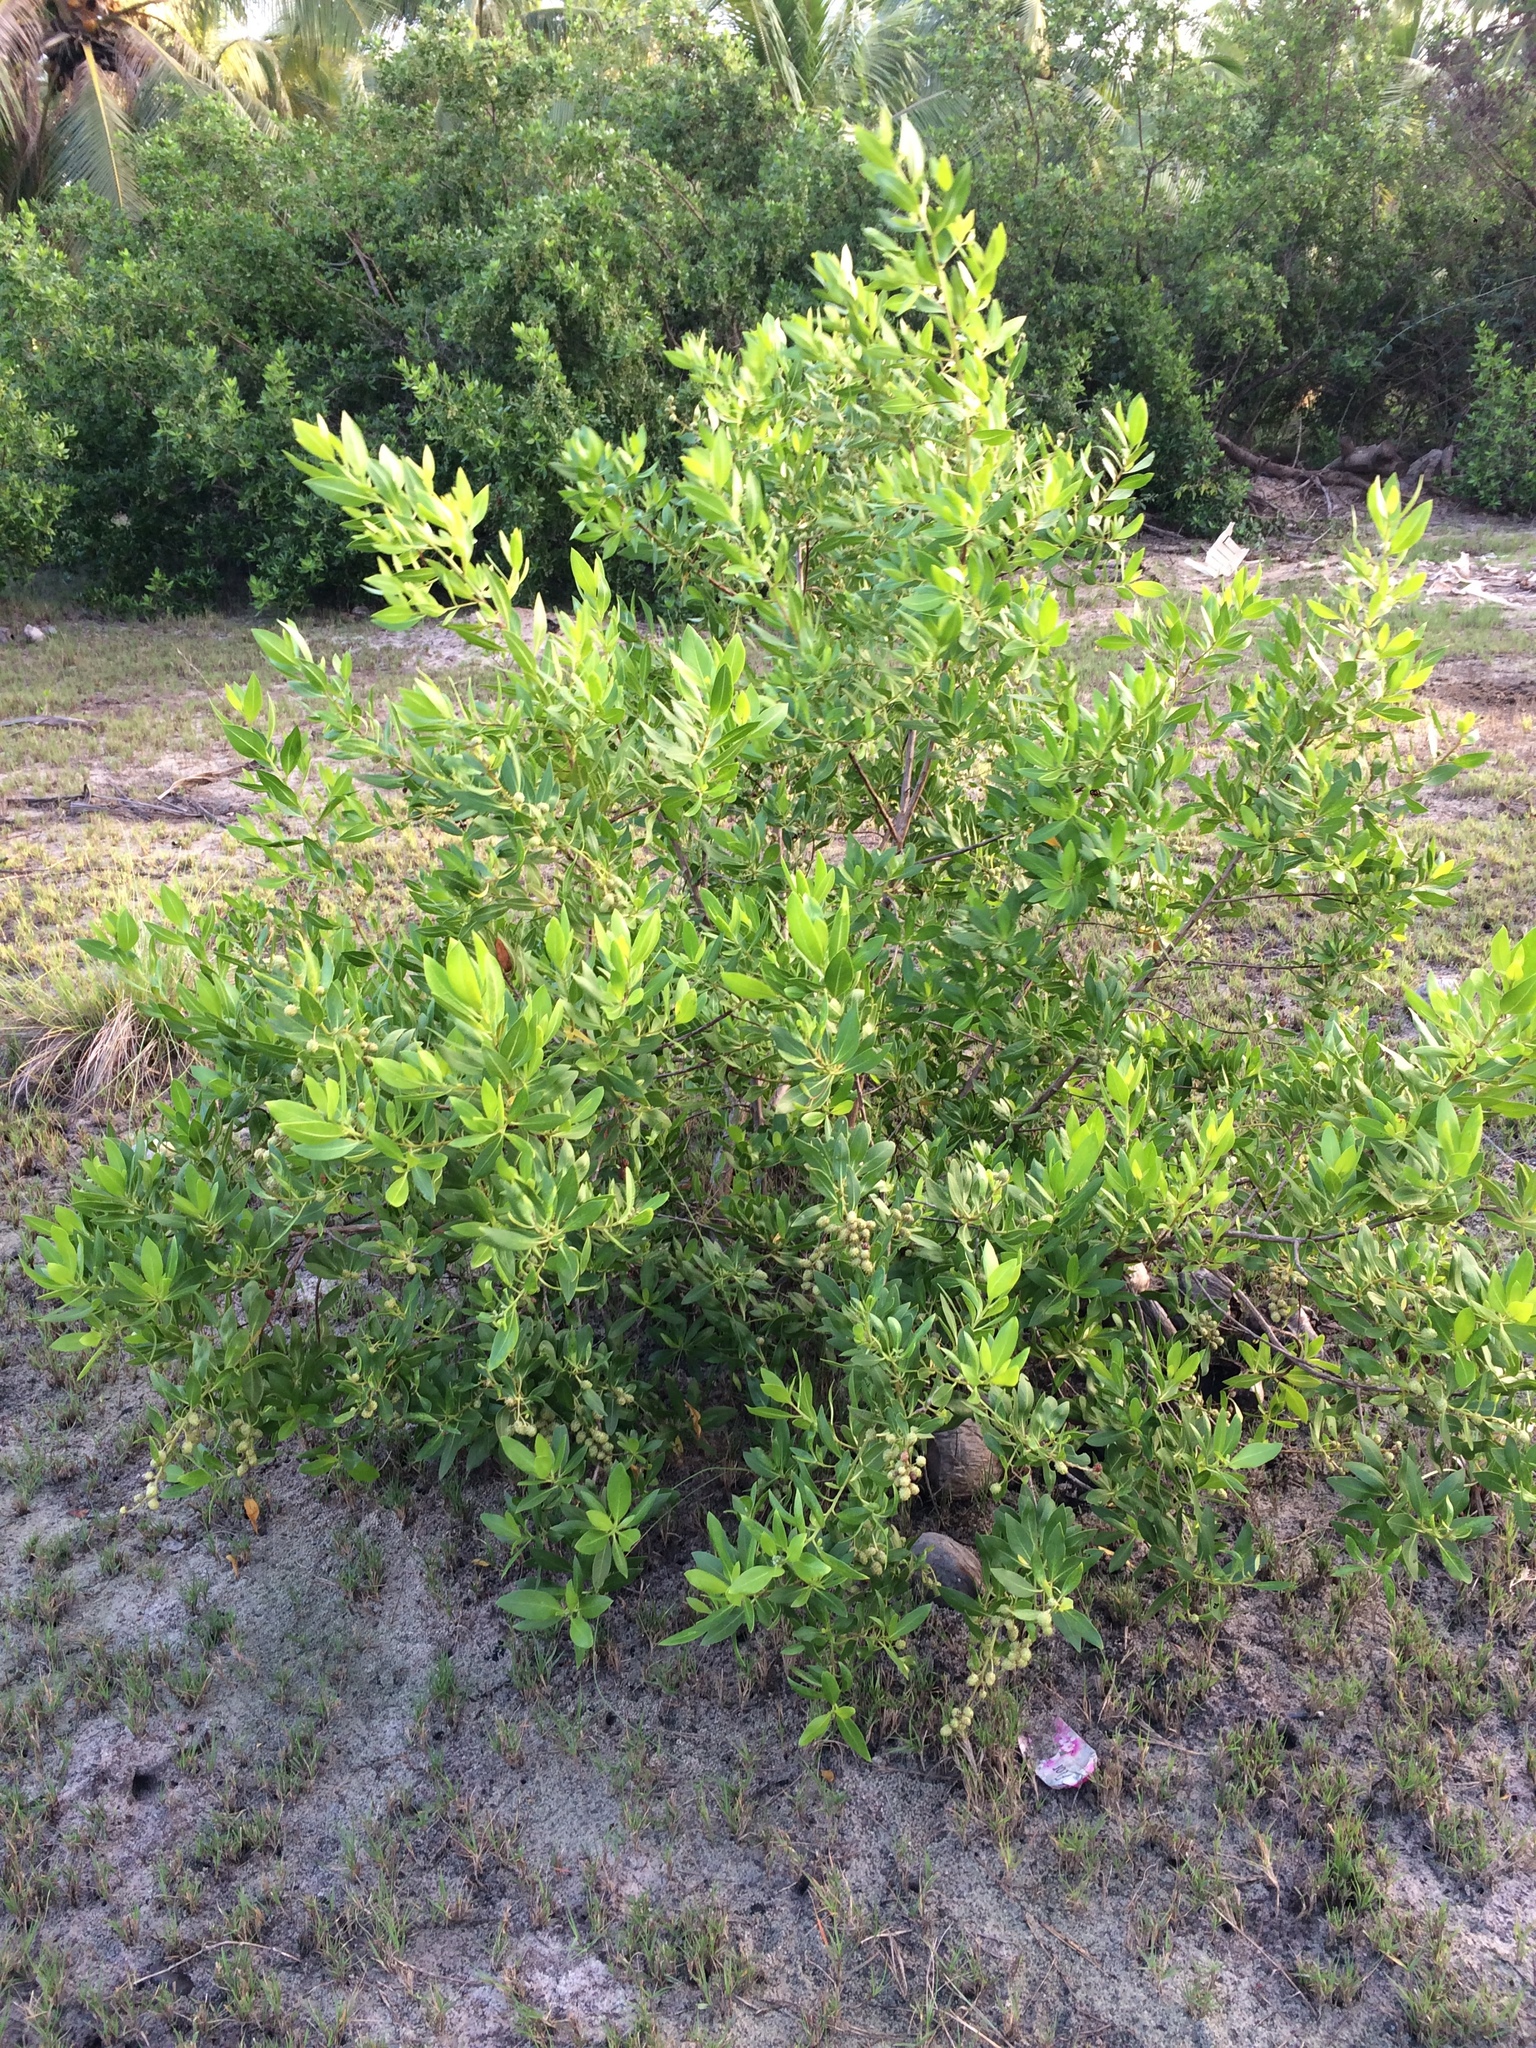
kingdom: Plantae
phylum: Tracheophyta
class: Magnoliopsida
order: Myrtales
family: Combretaceae
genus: Conocarpus
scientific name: Conocarpus erectus
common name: Button mangrove
